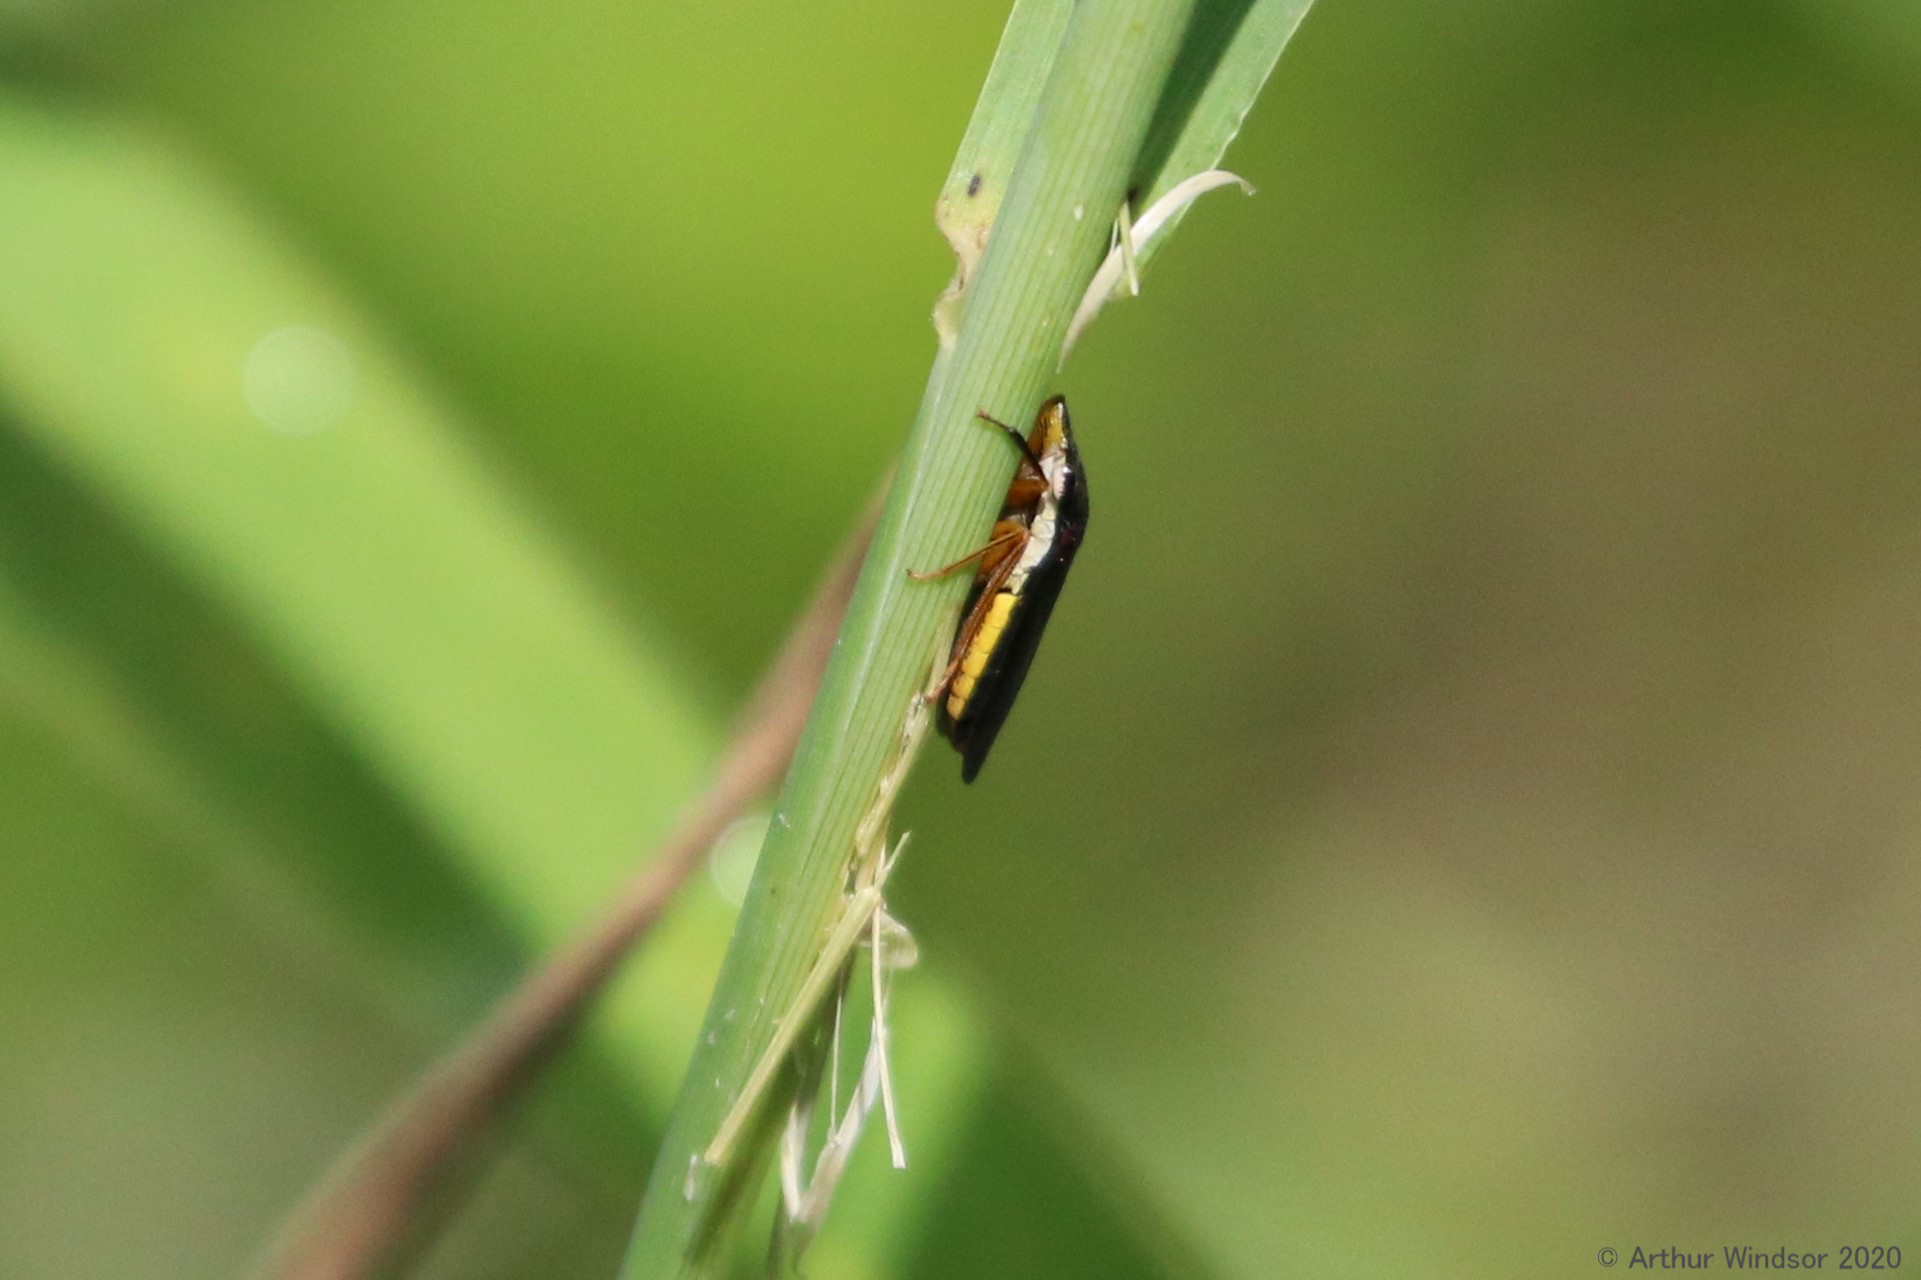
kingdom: Animalia
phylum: Arthropoda
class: Insecta
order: Hemiptera
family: Cicadellidae
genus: Homalodisca
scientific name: Homalodisca insolita
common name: Johnson grass sharpshooter
